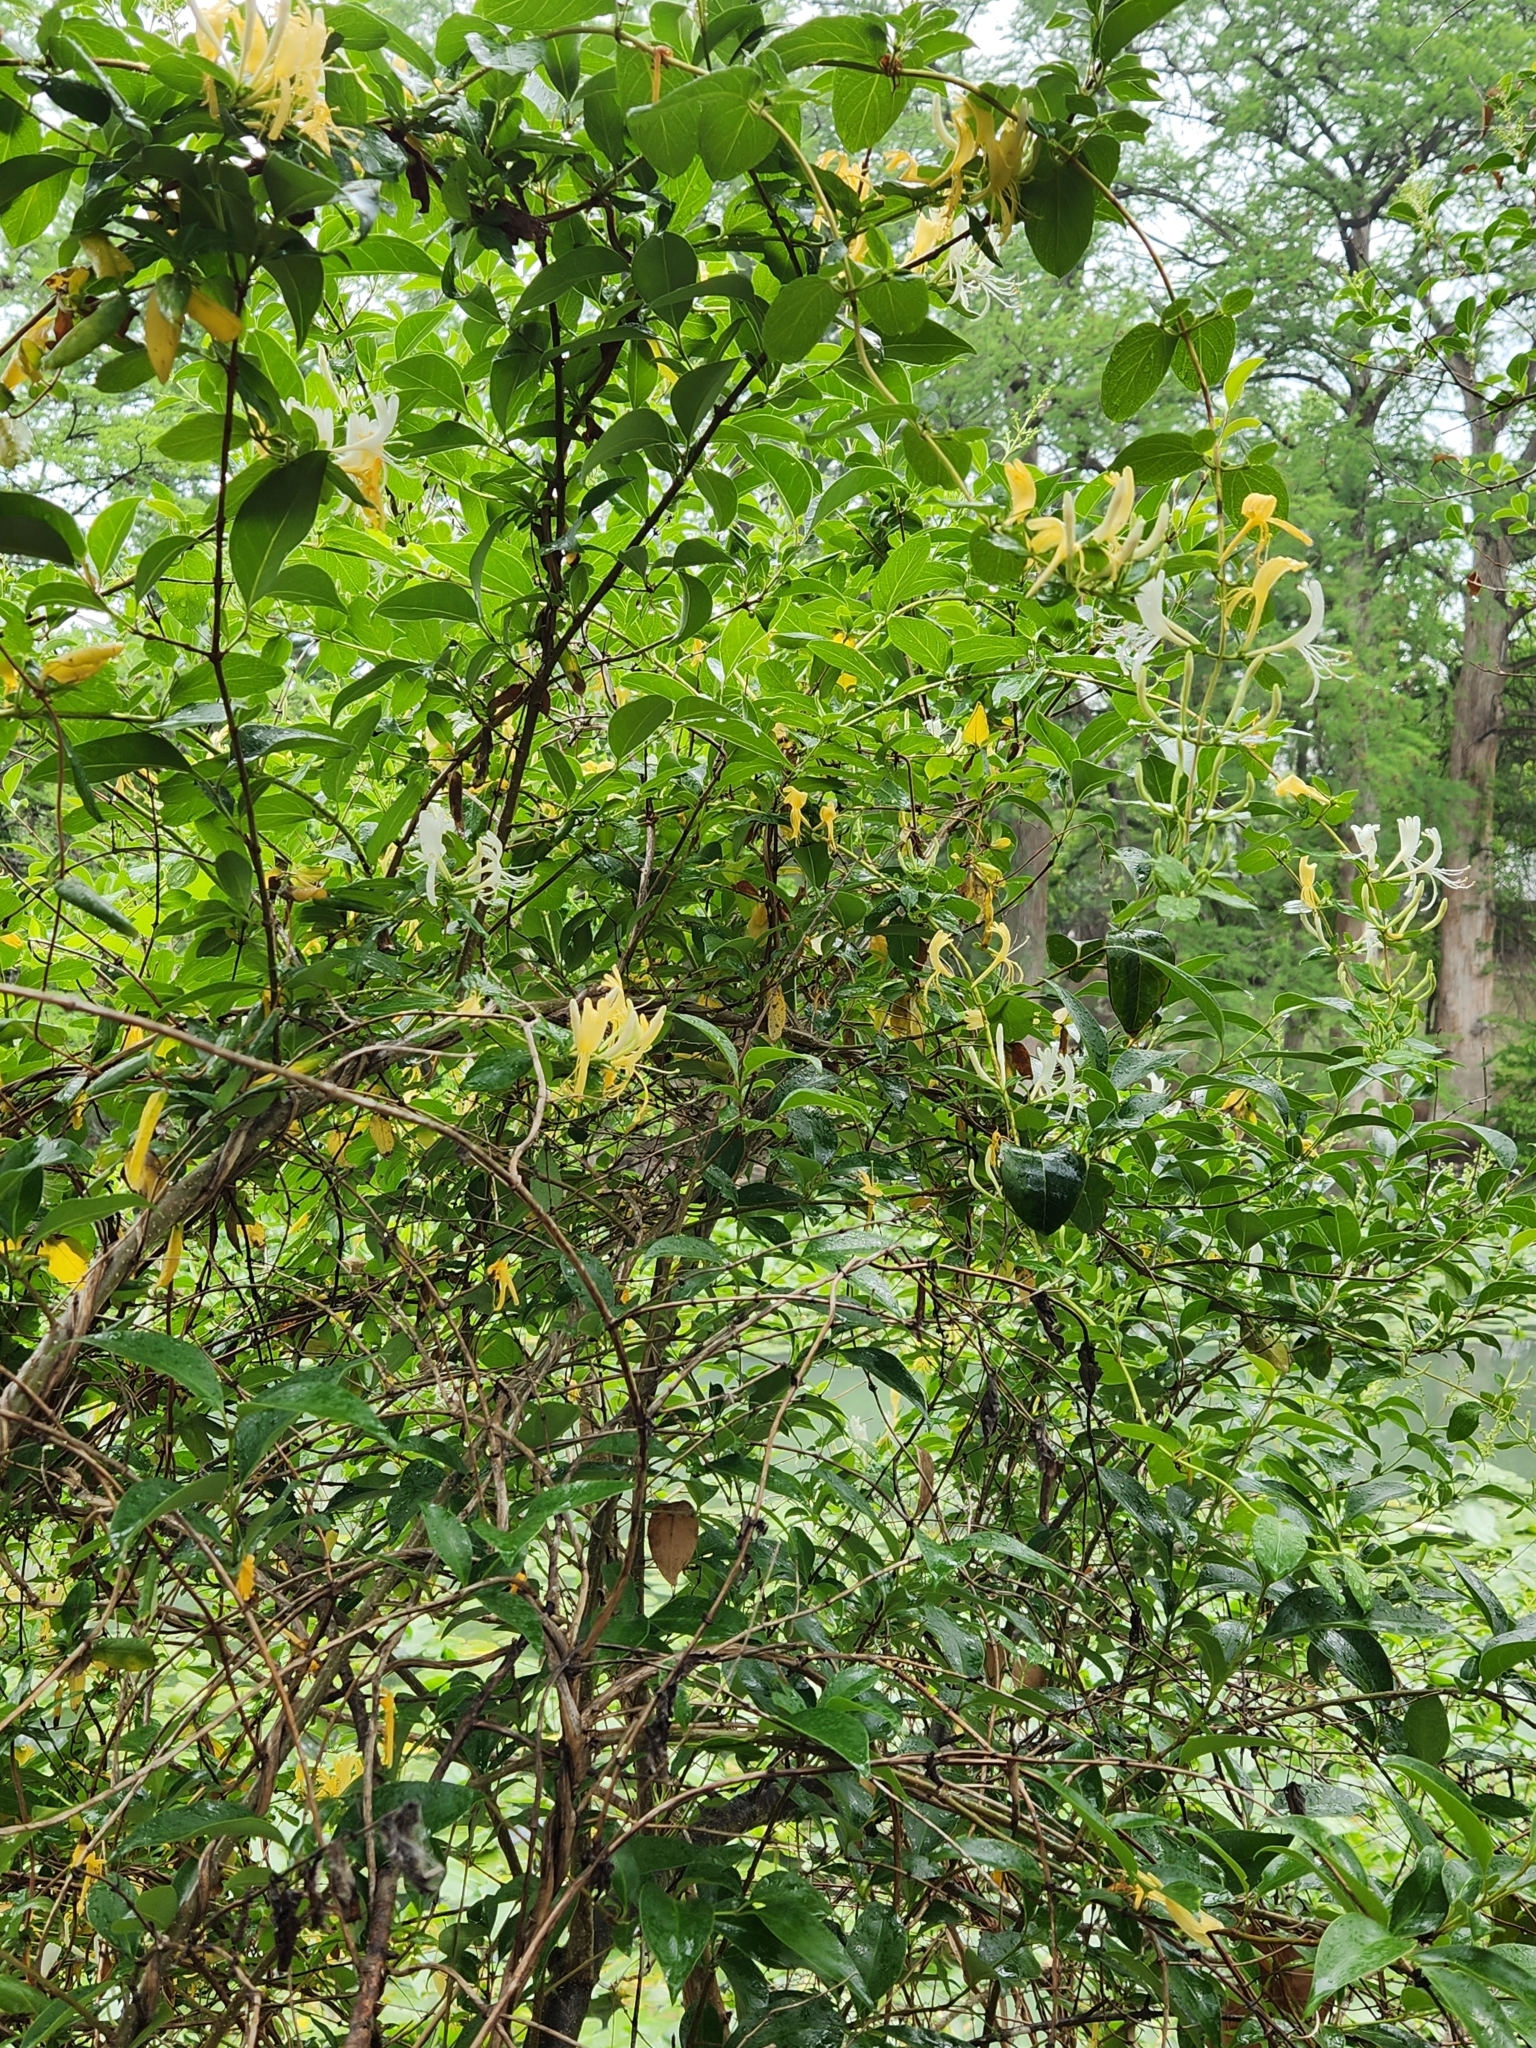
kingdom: Plantae
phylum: Tracheophyta
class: Magnoliopsida
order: Dipsacales
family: Caprifoliaceae
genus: Lonicera
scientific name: Lonicera japonica
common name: Japanese honeysuckle
